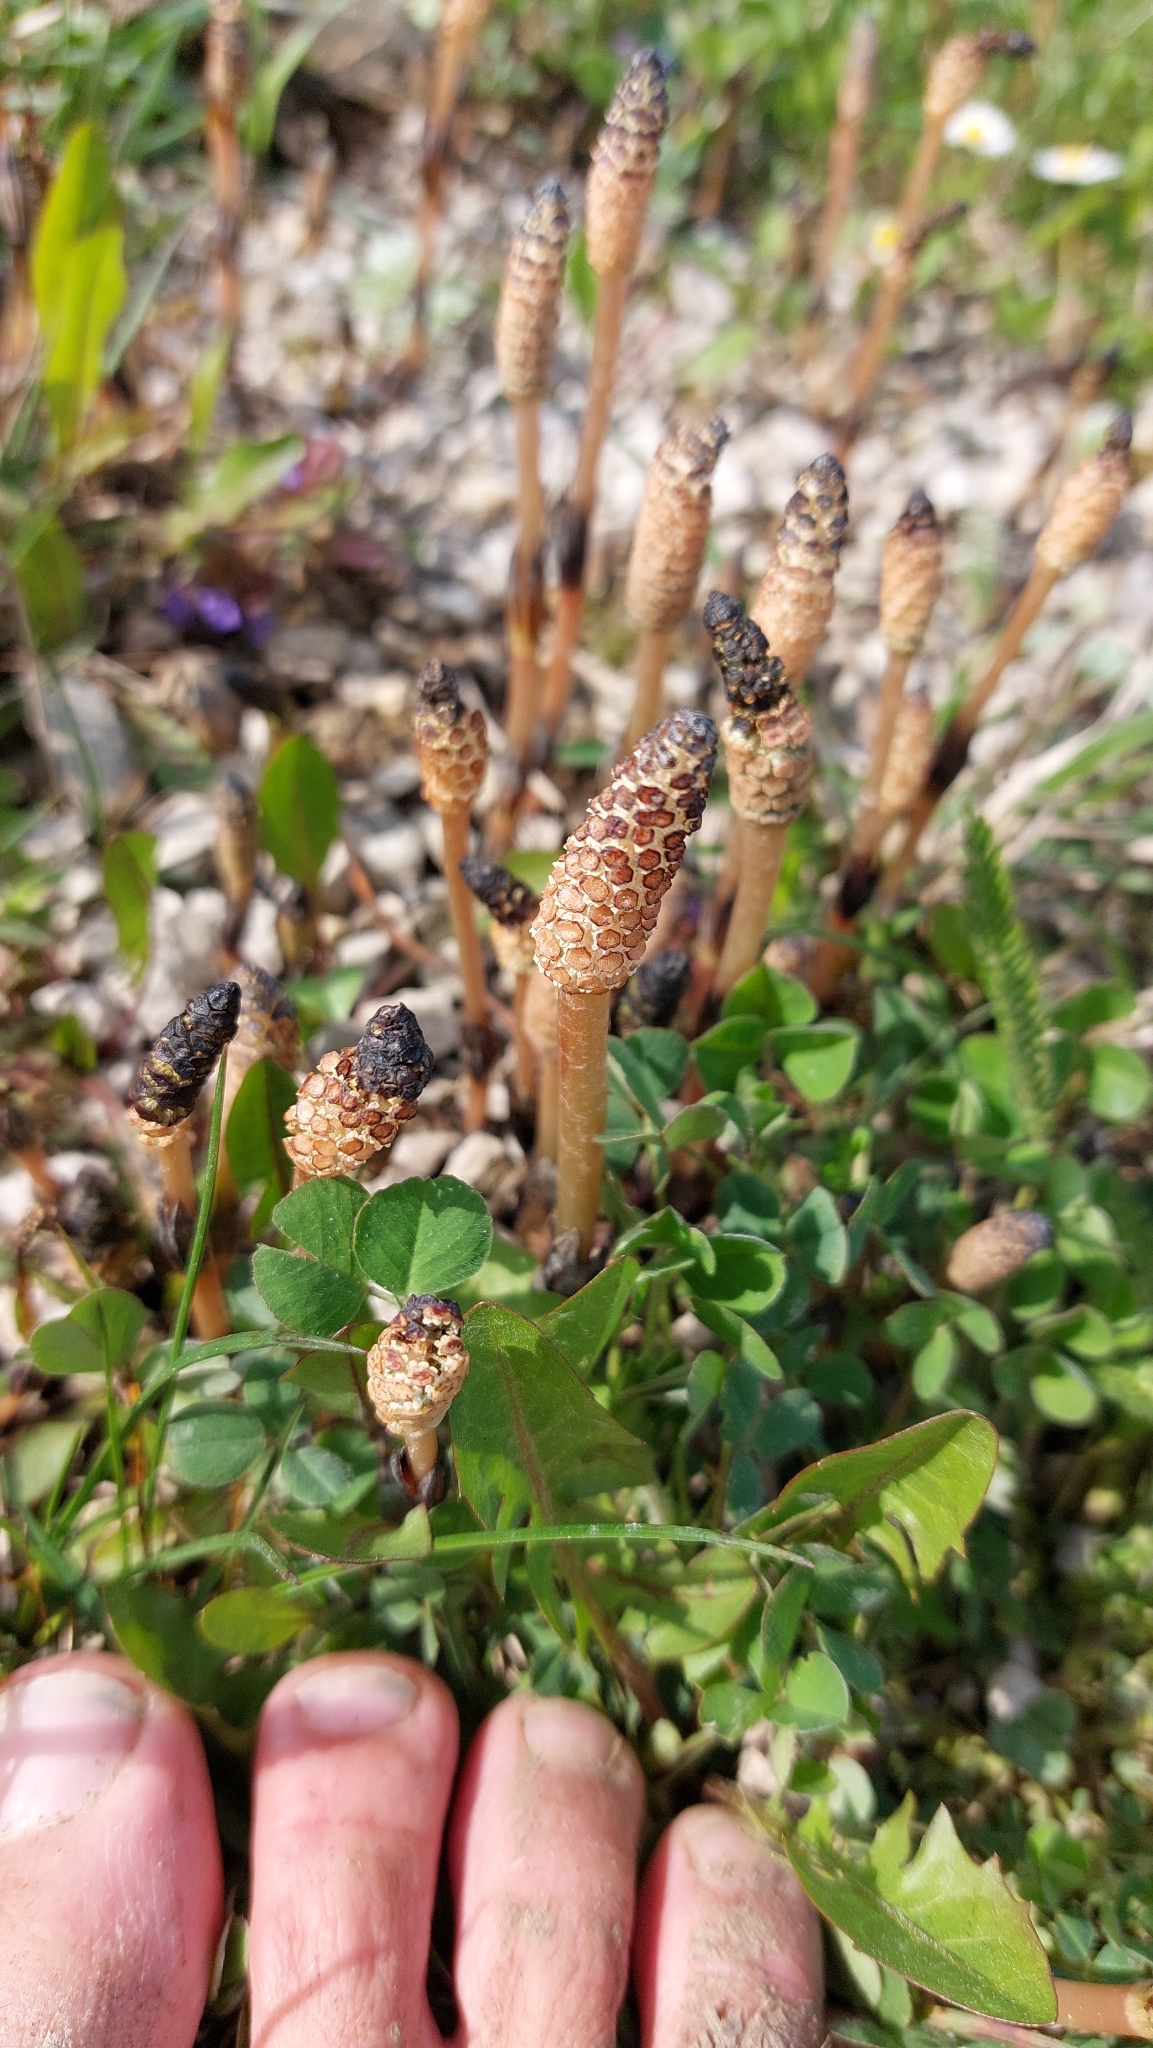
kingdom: Plantae
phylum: Tracheophyta
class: Polypodiopsida
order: Equisetales
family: Equisetaceae
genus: Equisetum
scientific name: Equisetum arvense
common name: Field horsetail
